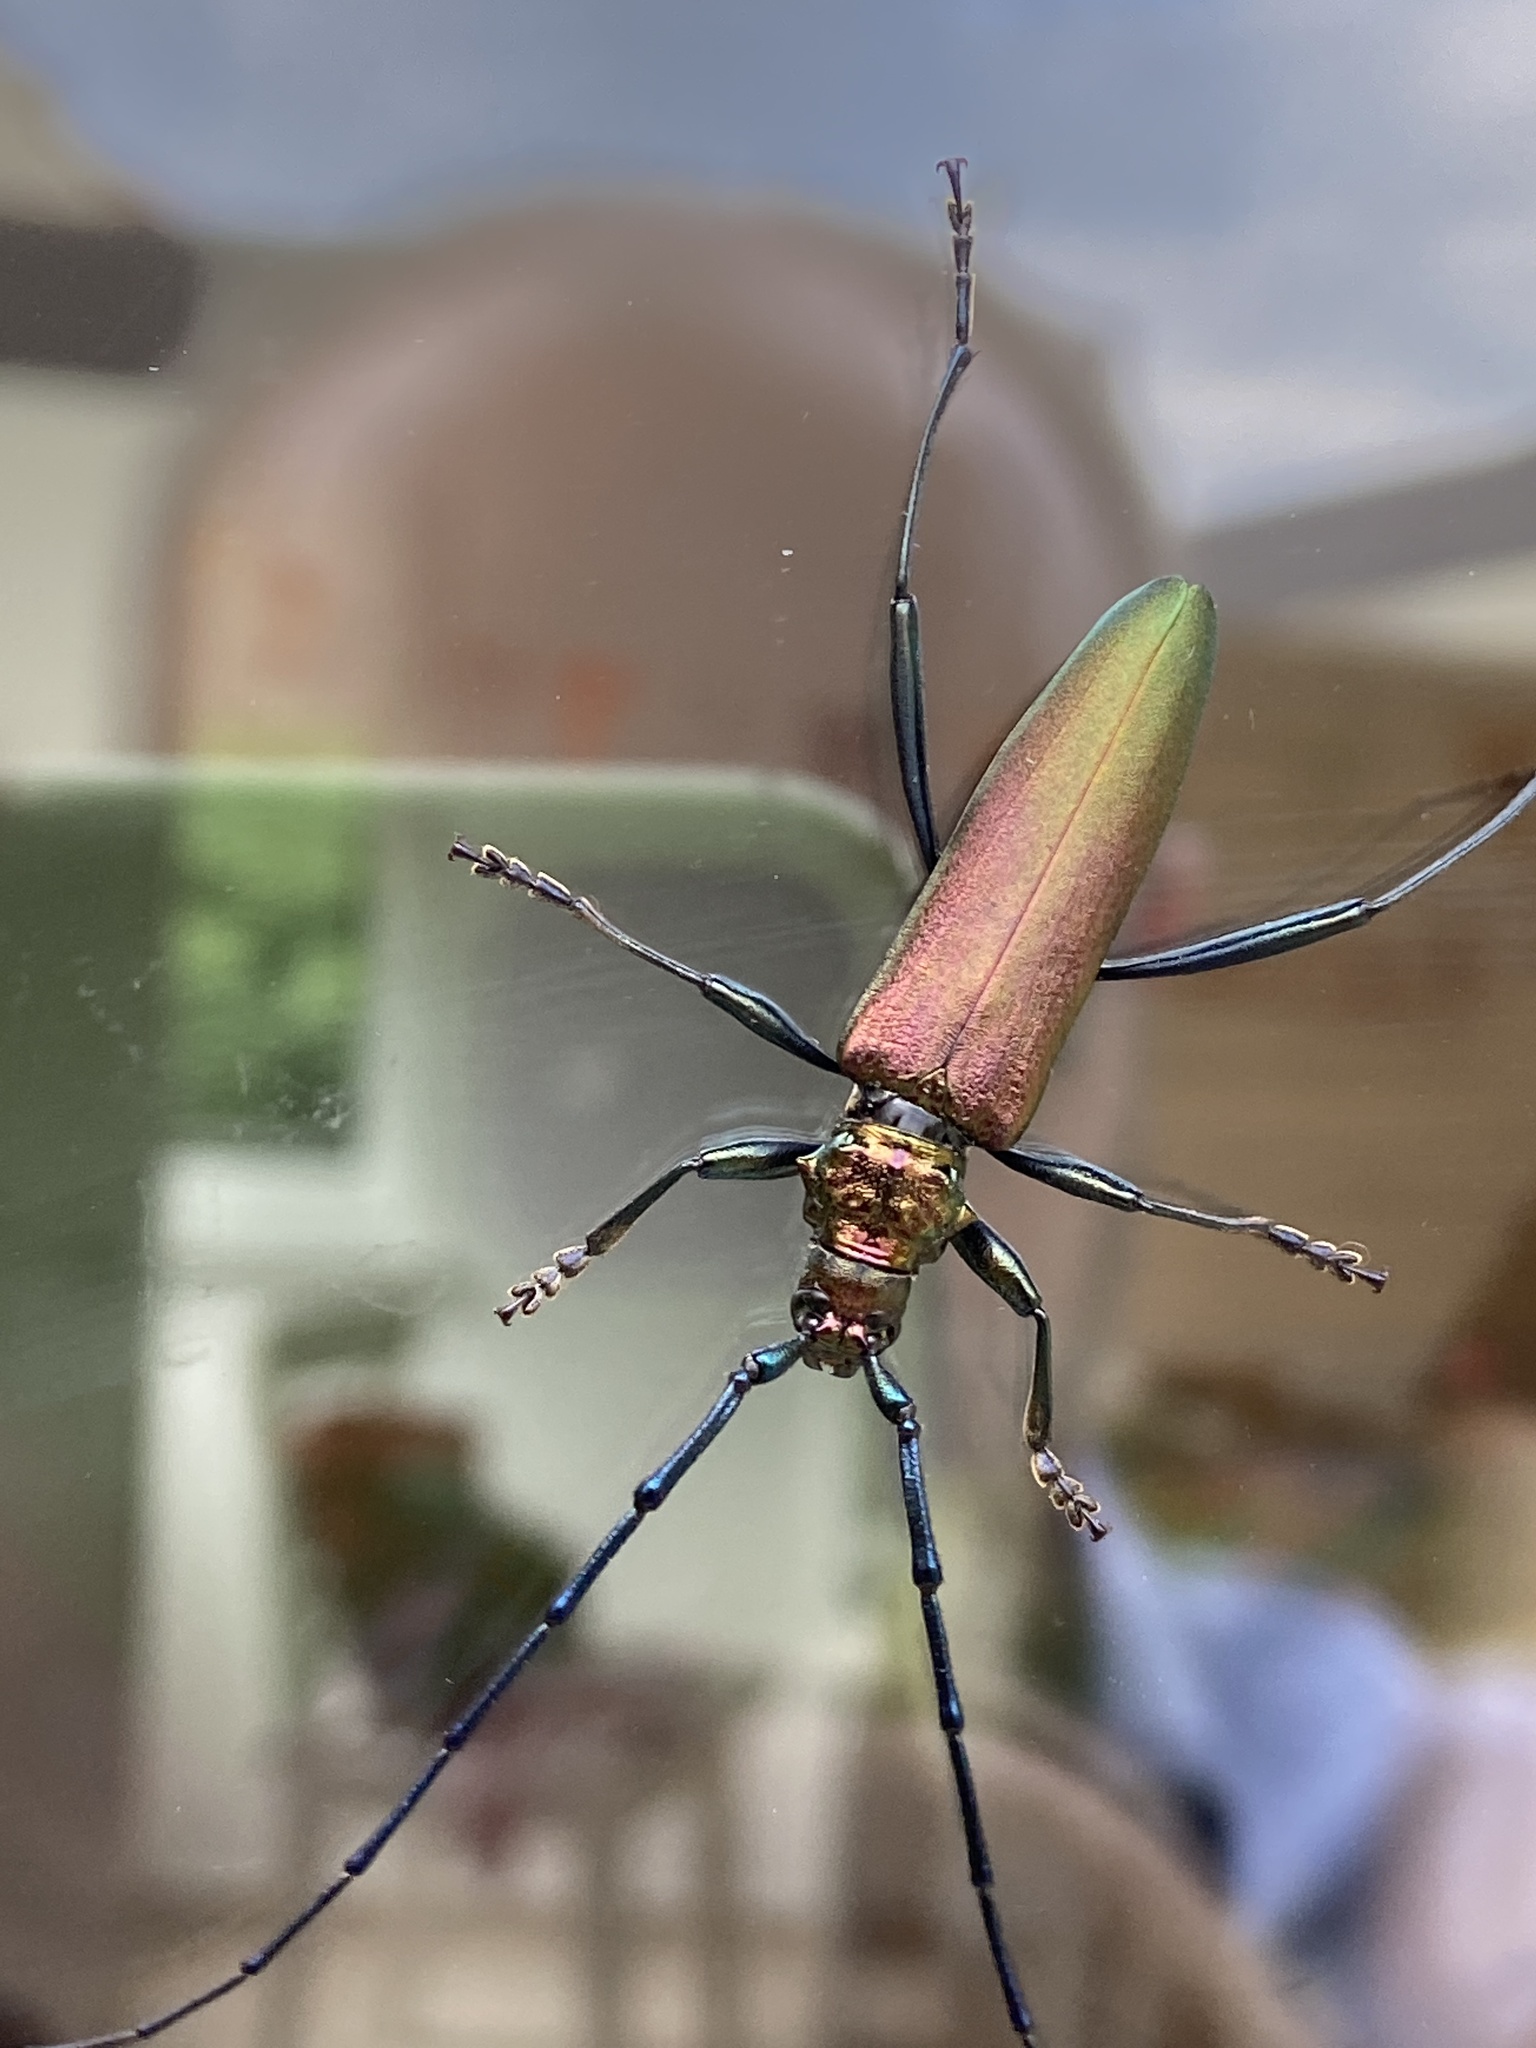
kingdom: Animalia
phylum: Arthropoda
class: Insecta
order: Coleoptera
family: Cerambycidae
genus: Aromia
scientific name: Aromia moschata
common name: Musk beetle
